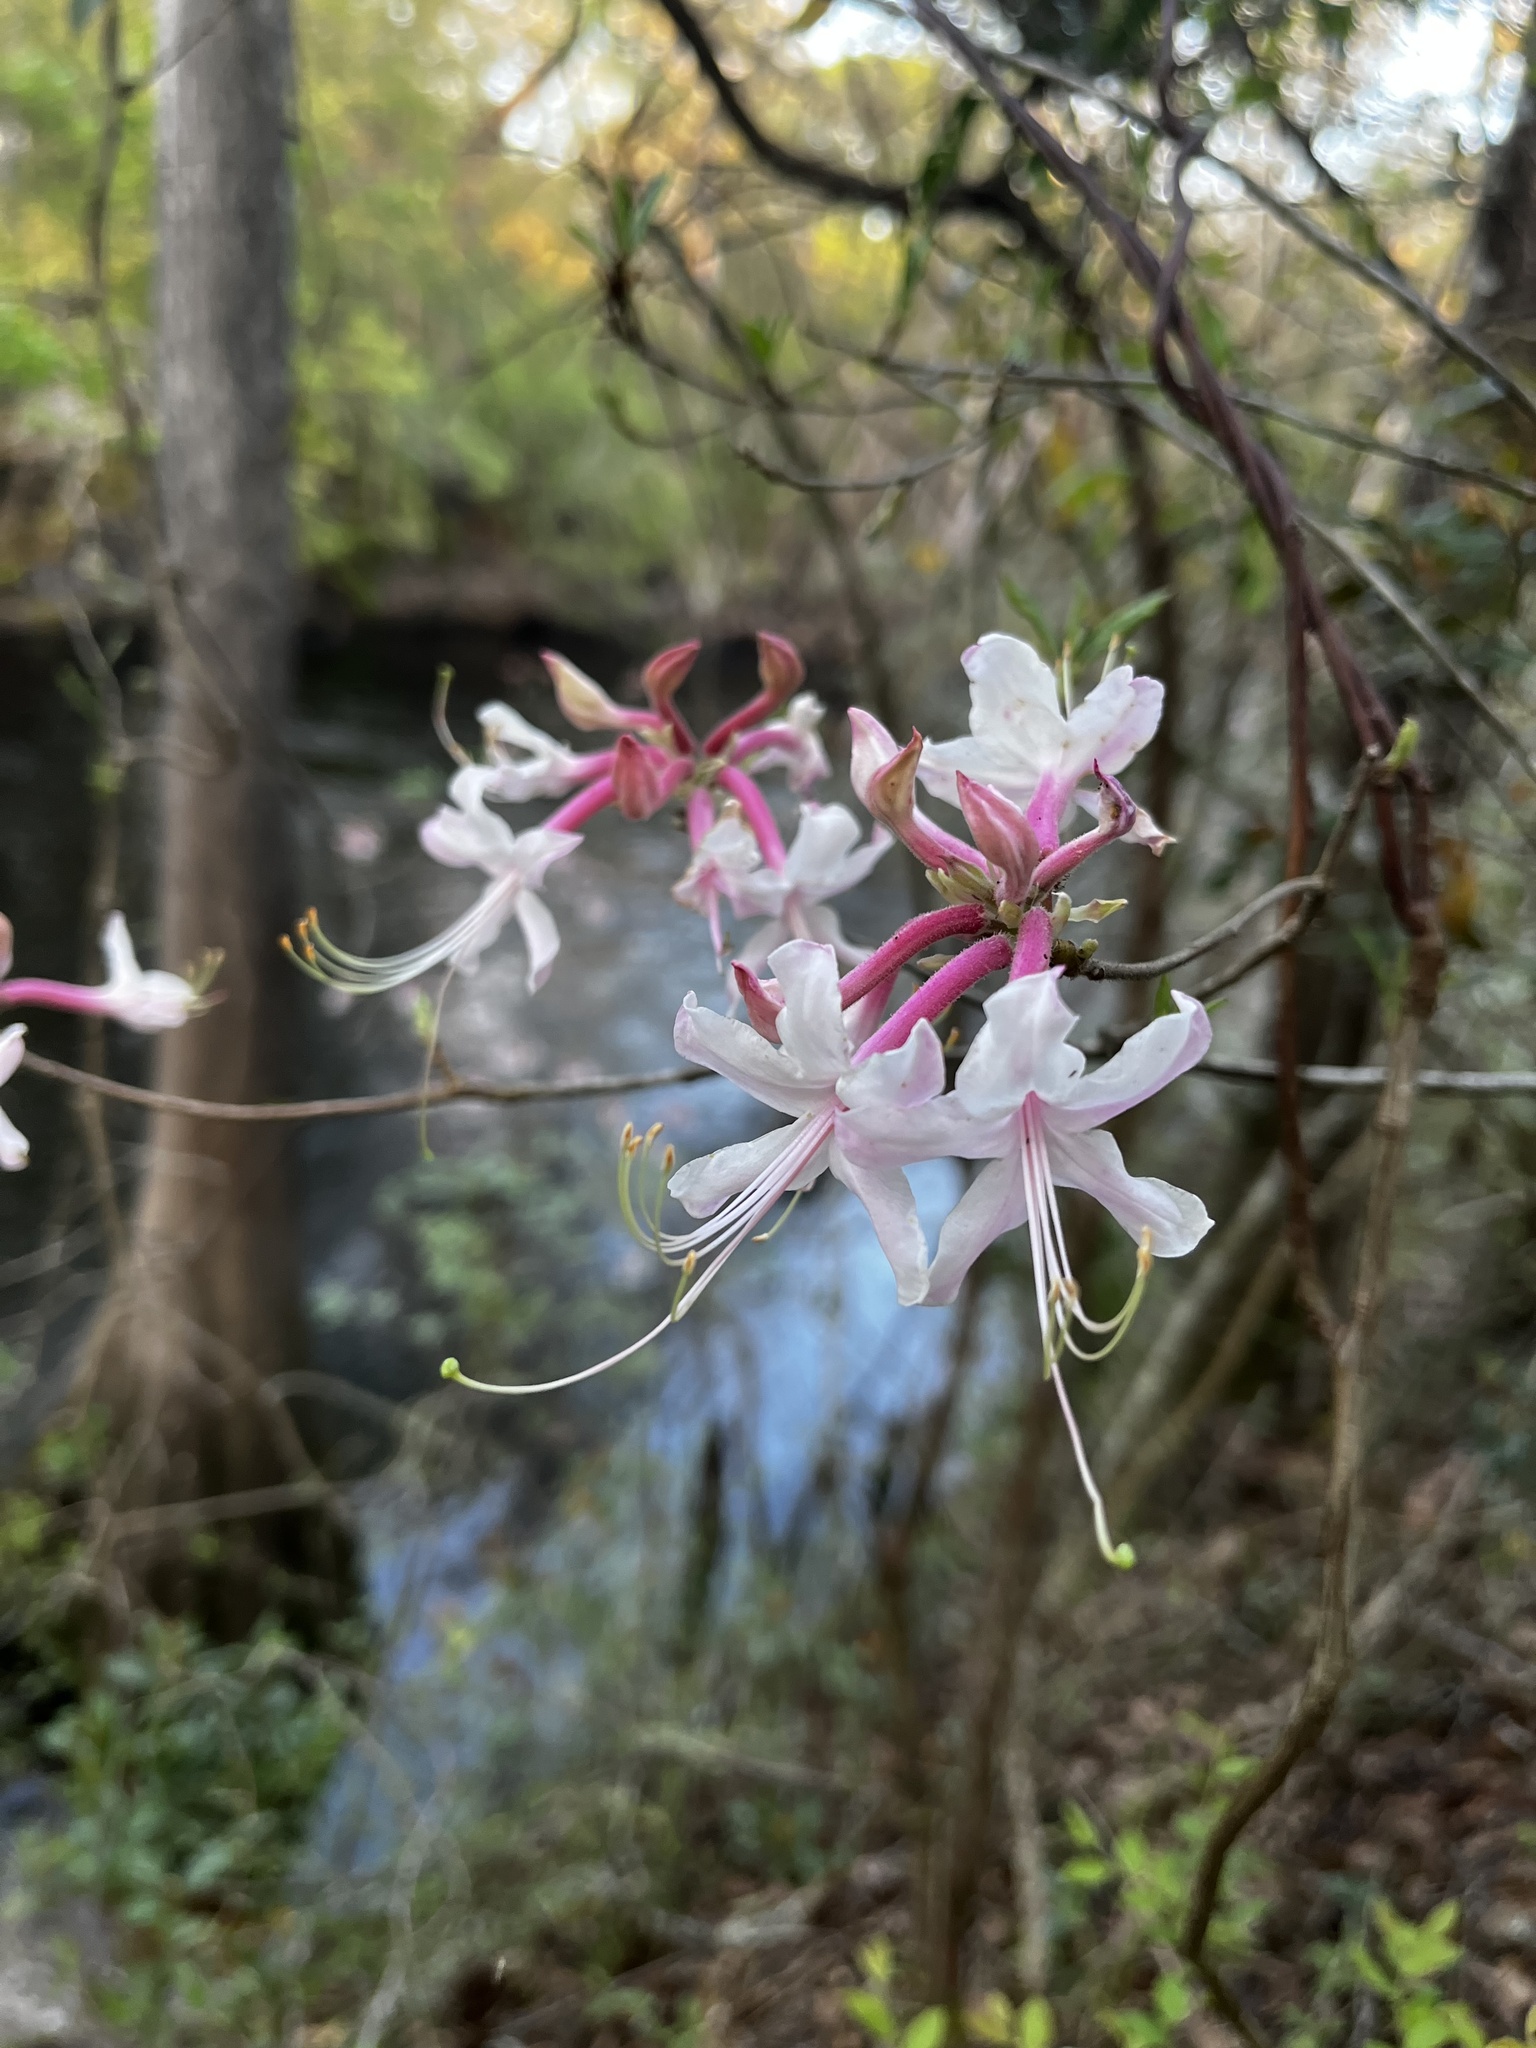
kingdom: Plantae
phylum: Tracheophyta
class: Magnoliopsida
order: Ericales
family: Ericaceae
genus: Rhododendron
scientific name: Rhododendron canescens
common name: Mountain azalea
